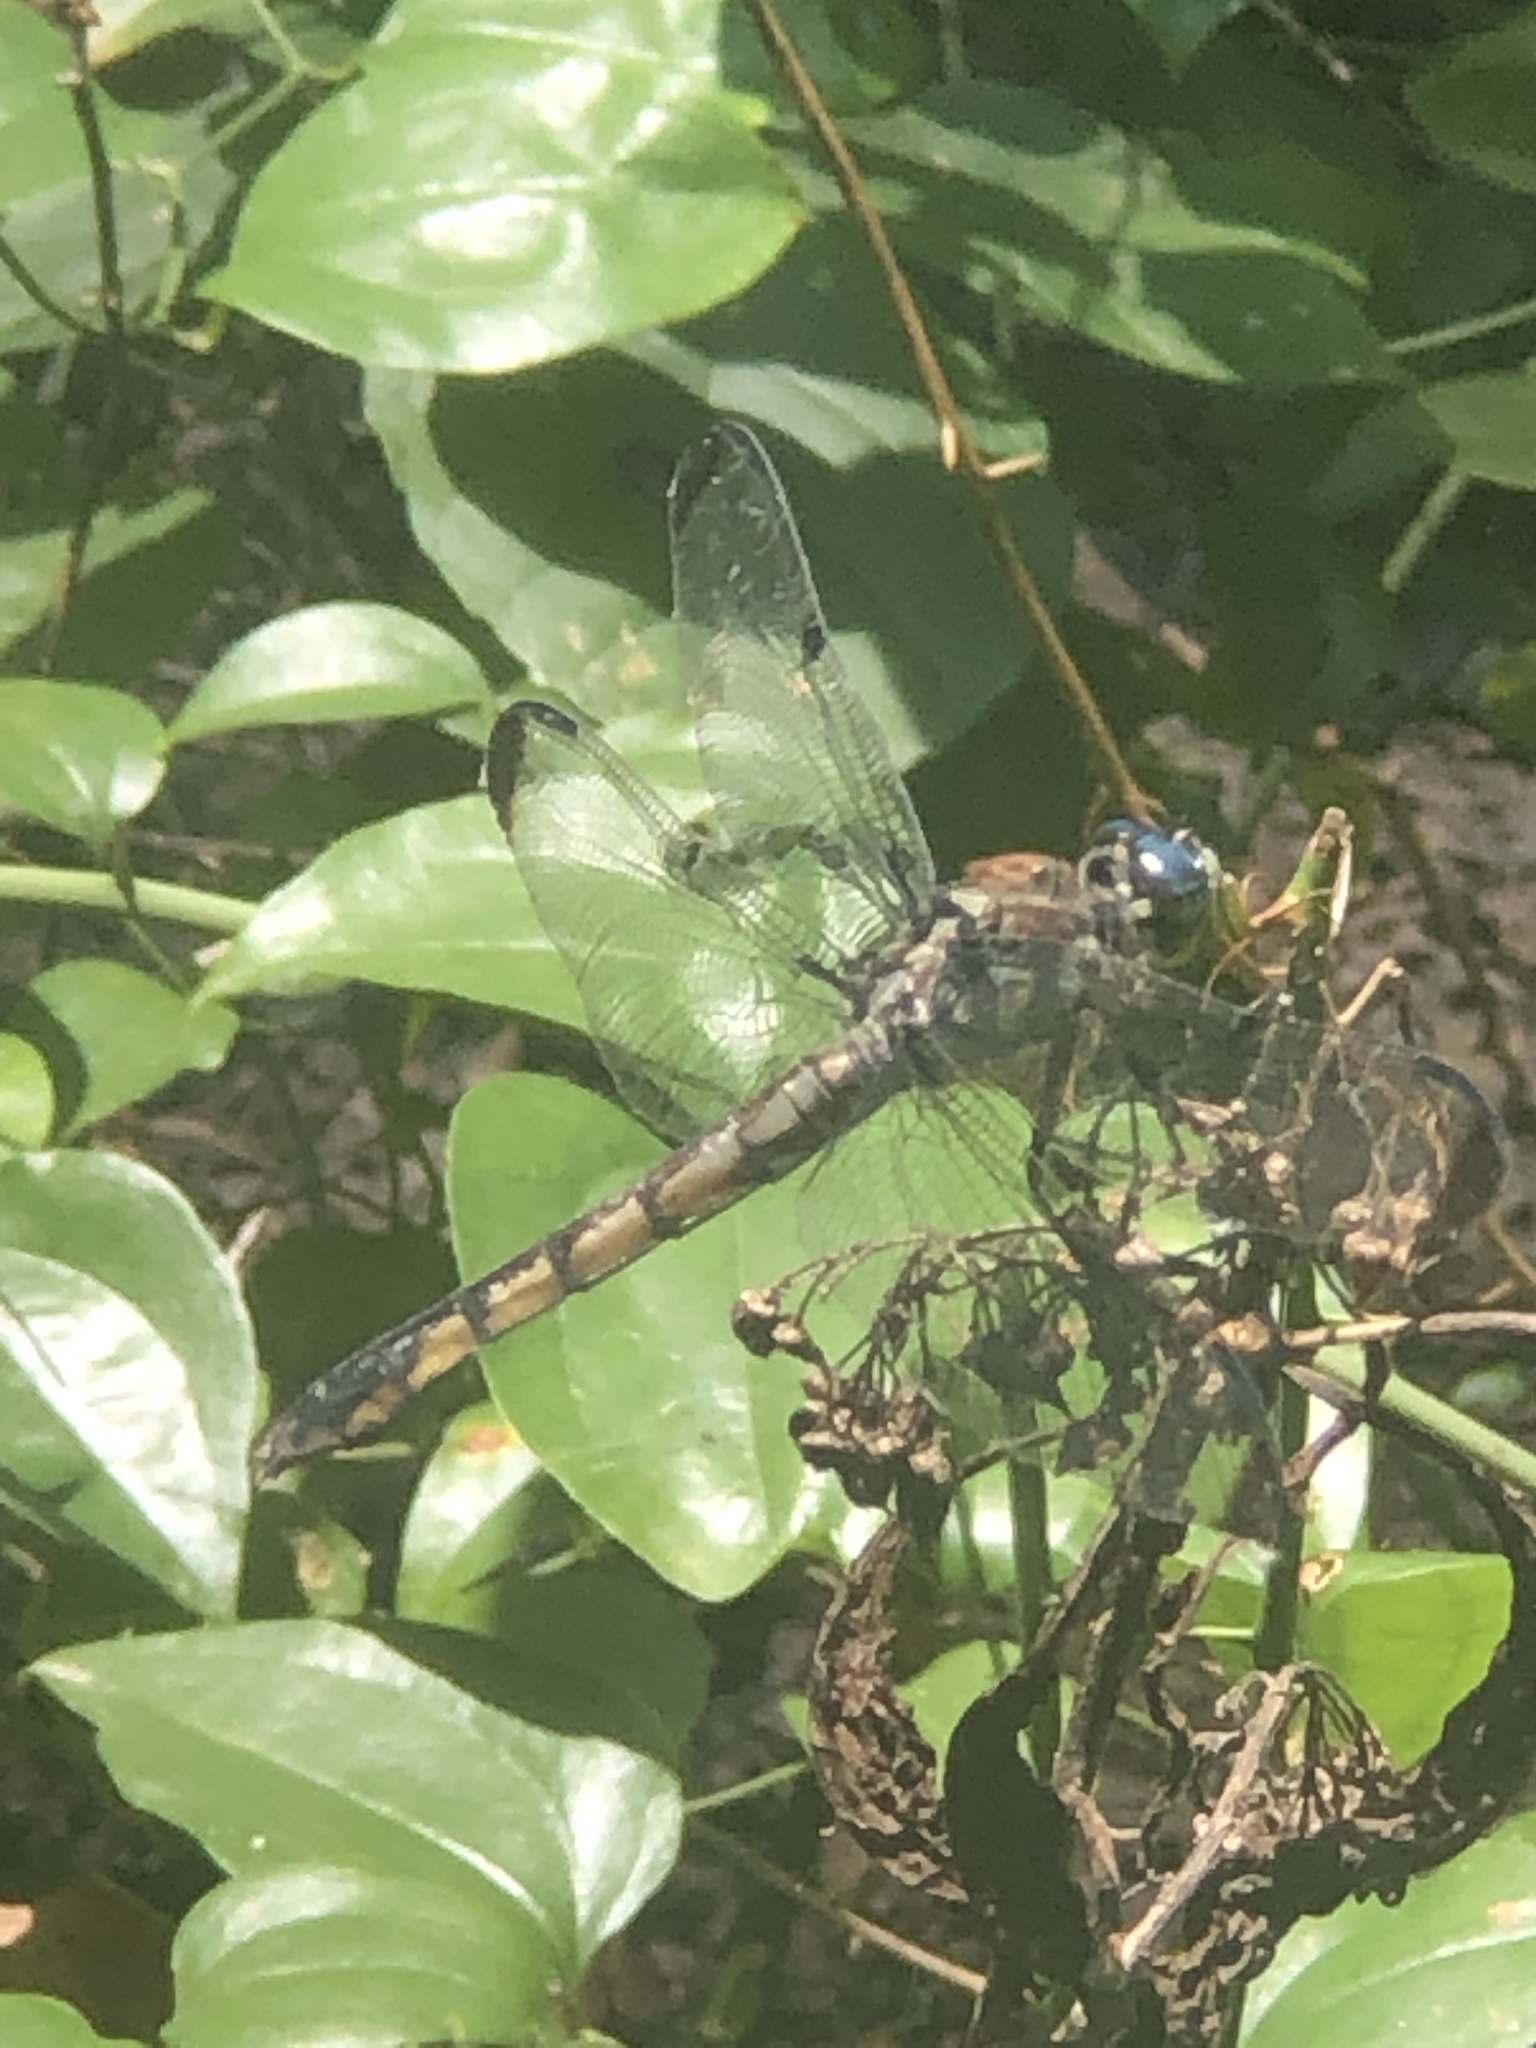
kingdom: Animalia
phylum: Arthropoda
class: Insecta
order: Odonata
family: Libellulidae
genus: Libellula
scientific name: Libellula vibrans
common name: Great blue skimmer
